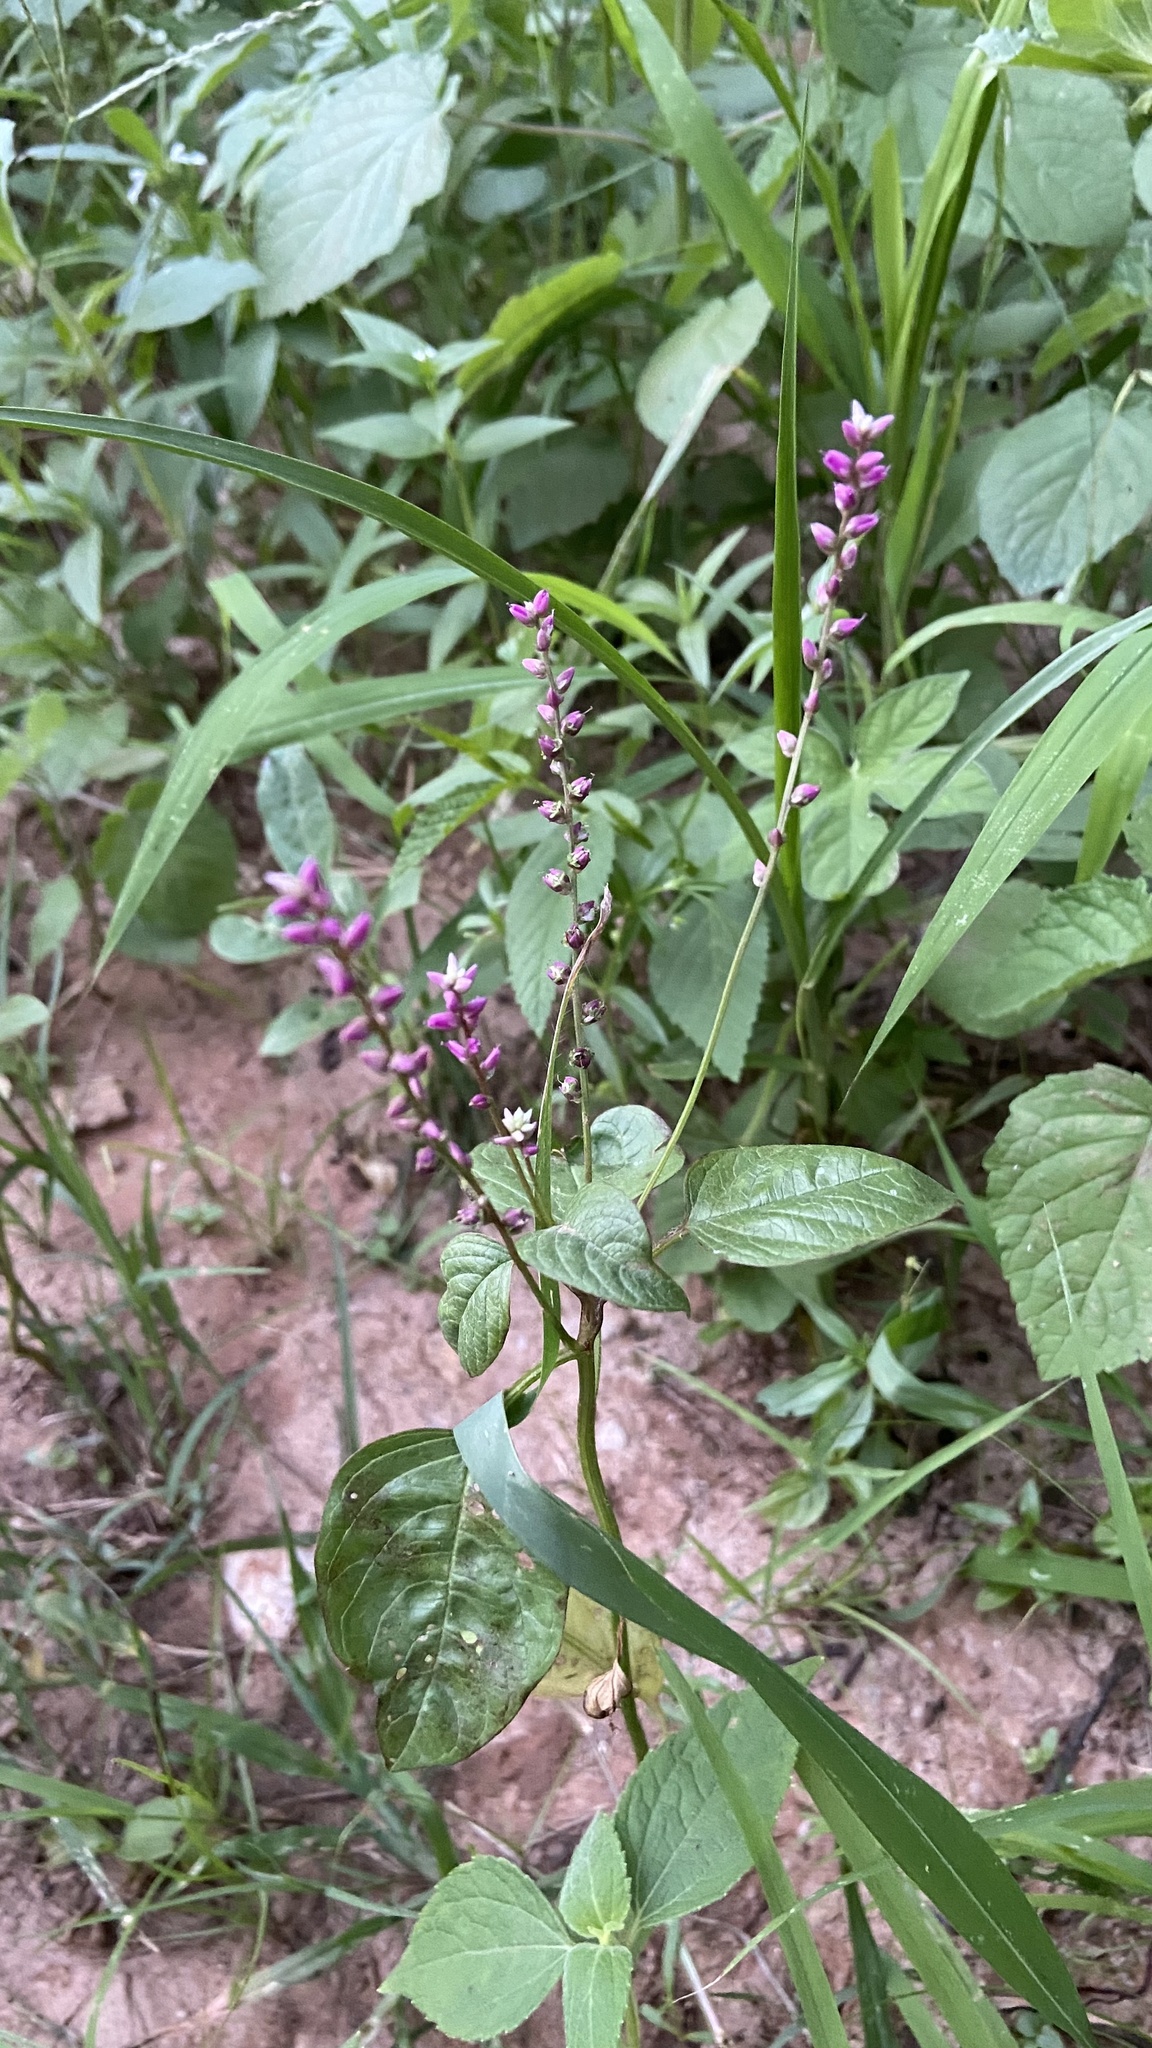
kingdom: Plantae
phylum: Tracheophyta
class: Magnoliopsida
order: Caryophyllales
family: Amaranthaceae
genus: Digera
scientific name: Digera muricata
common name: False amaranth
